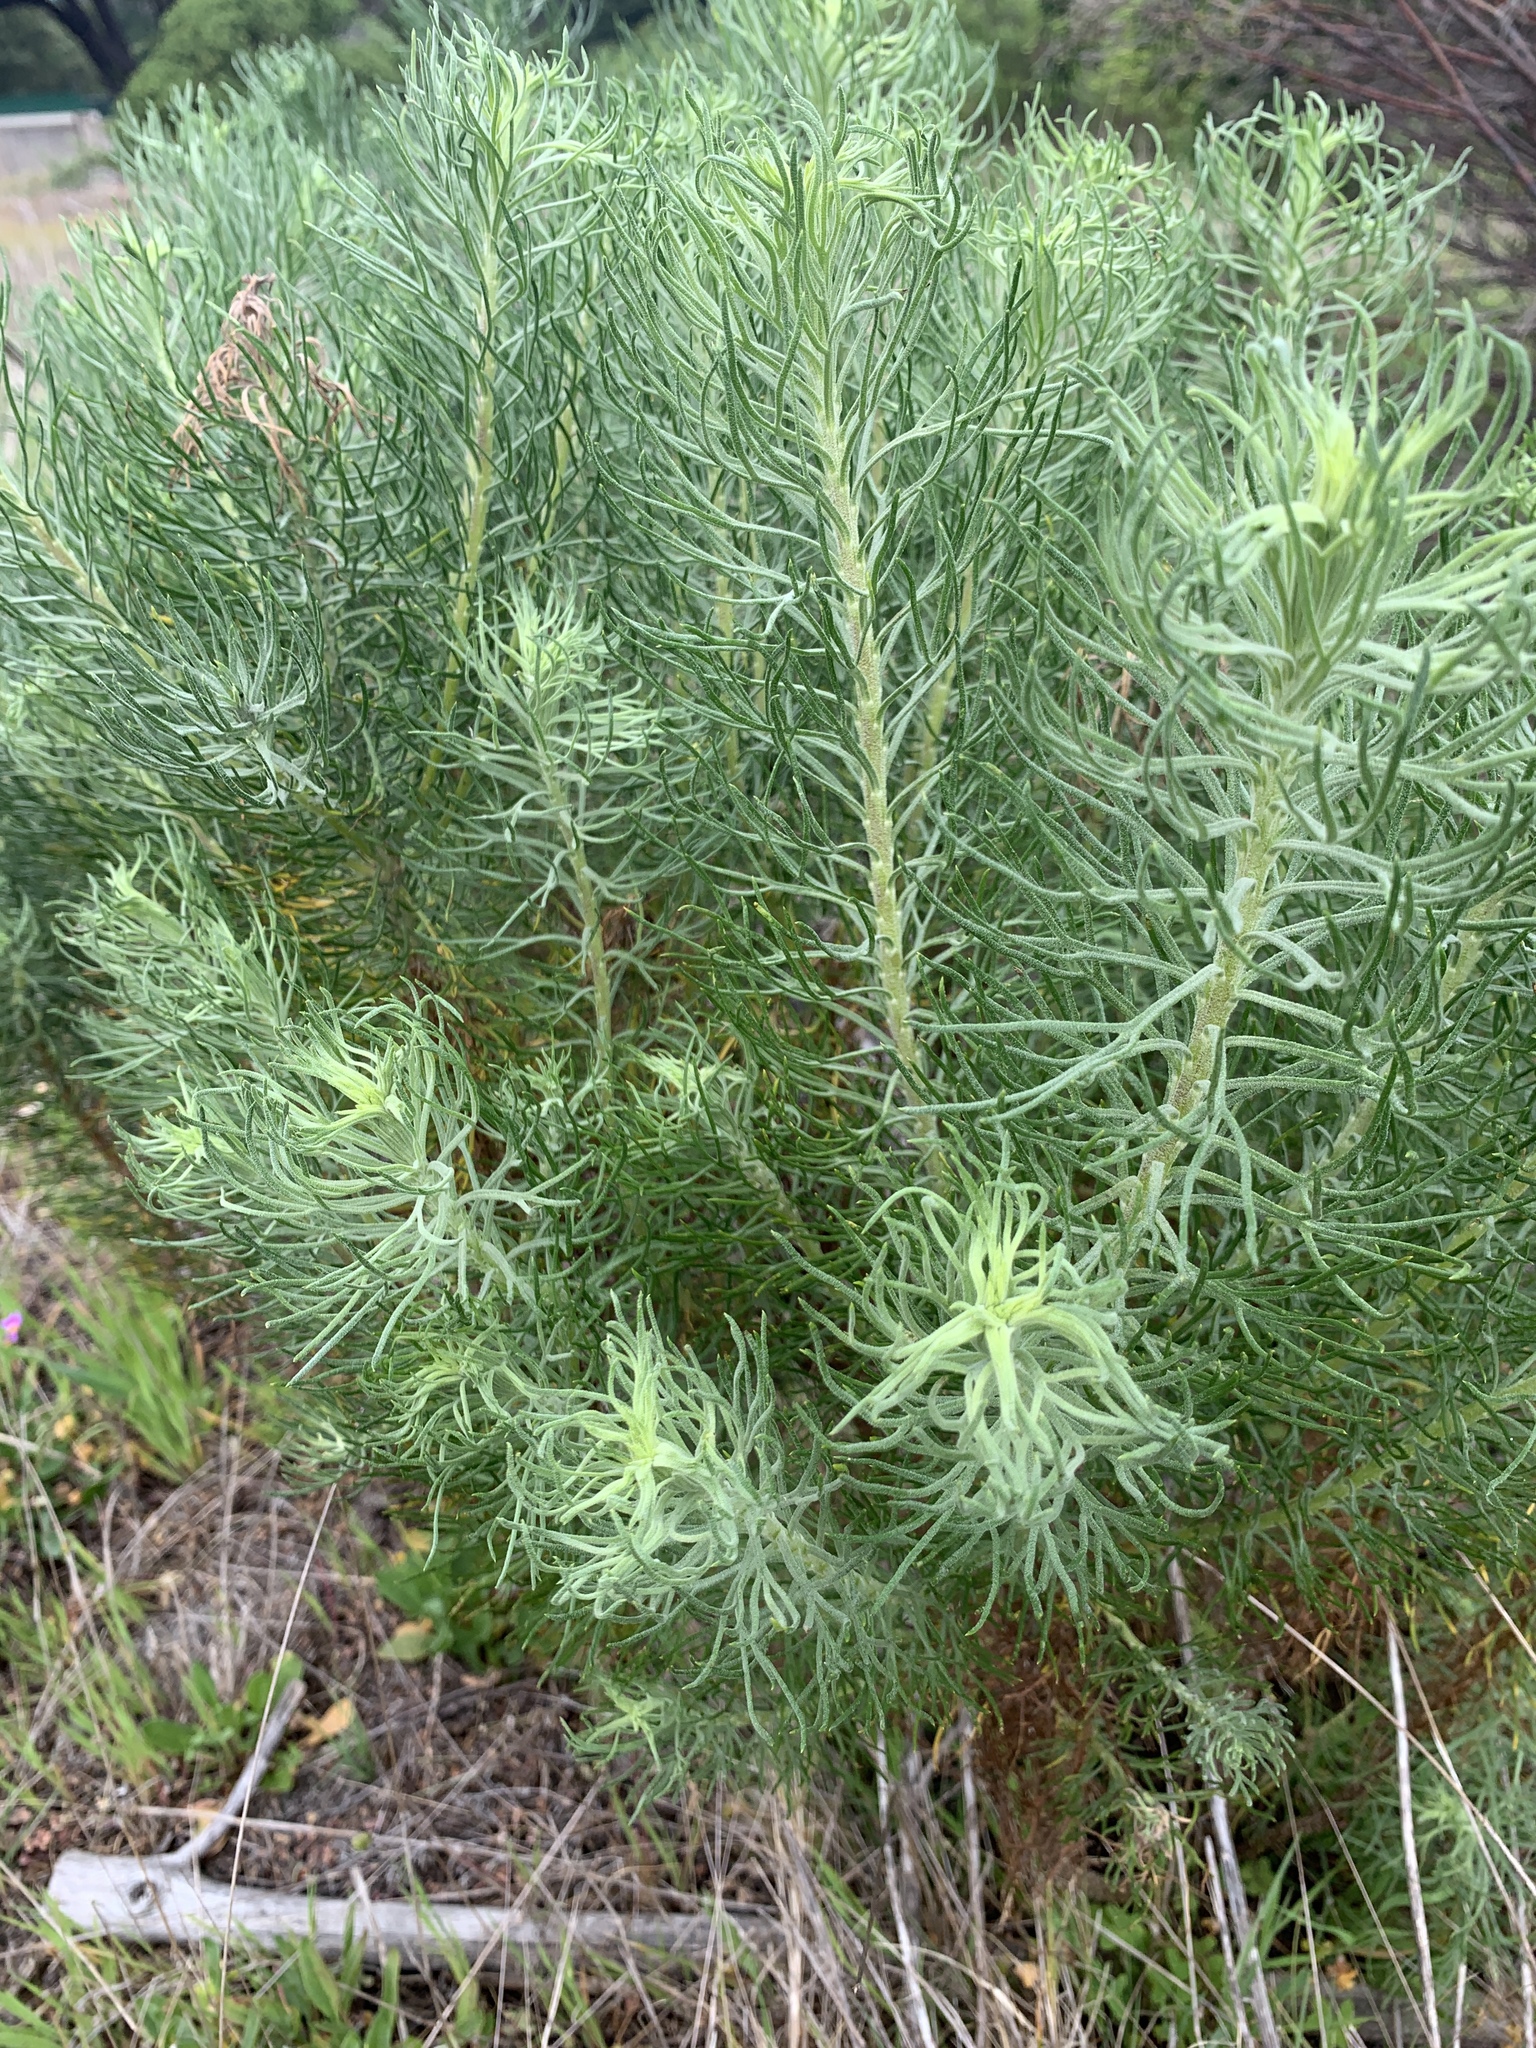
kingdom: Plantae
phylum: Tracheophyta
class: Magnoliopsida
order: Asterales
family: Asteraceae
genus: Athanasia
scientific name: Athanasia crithmifolia
